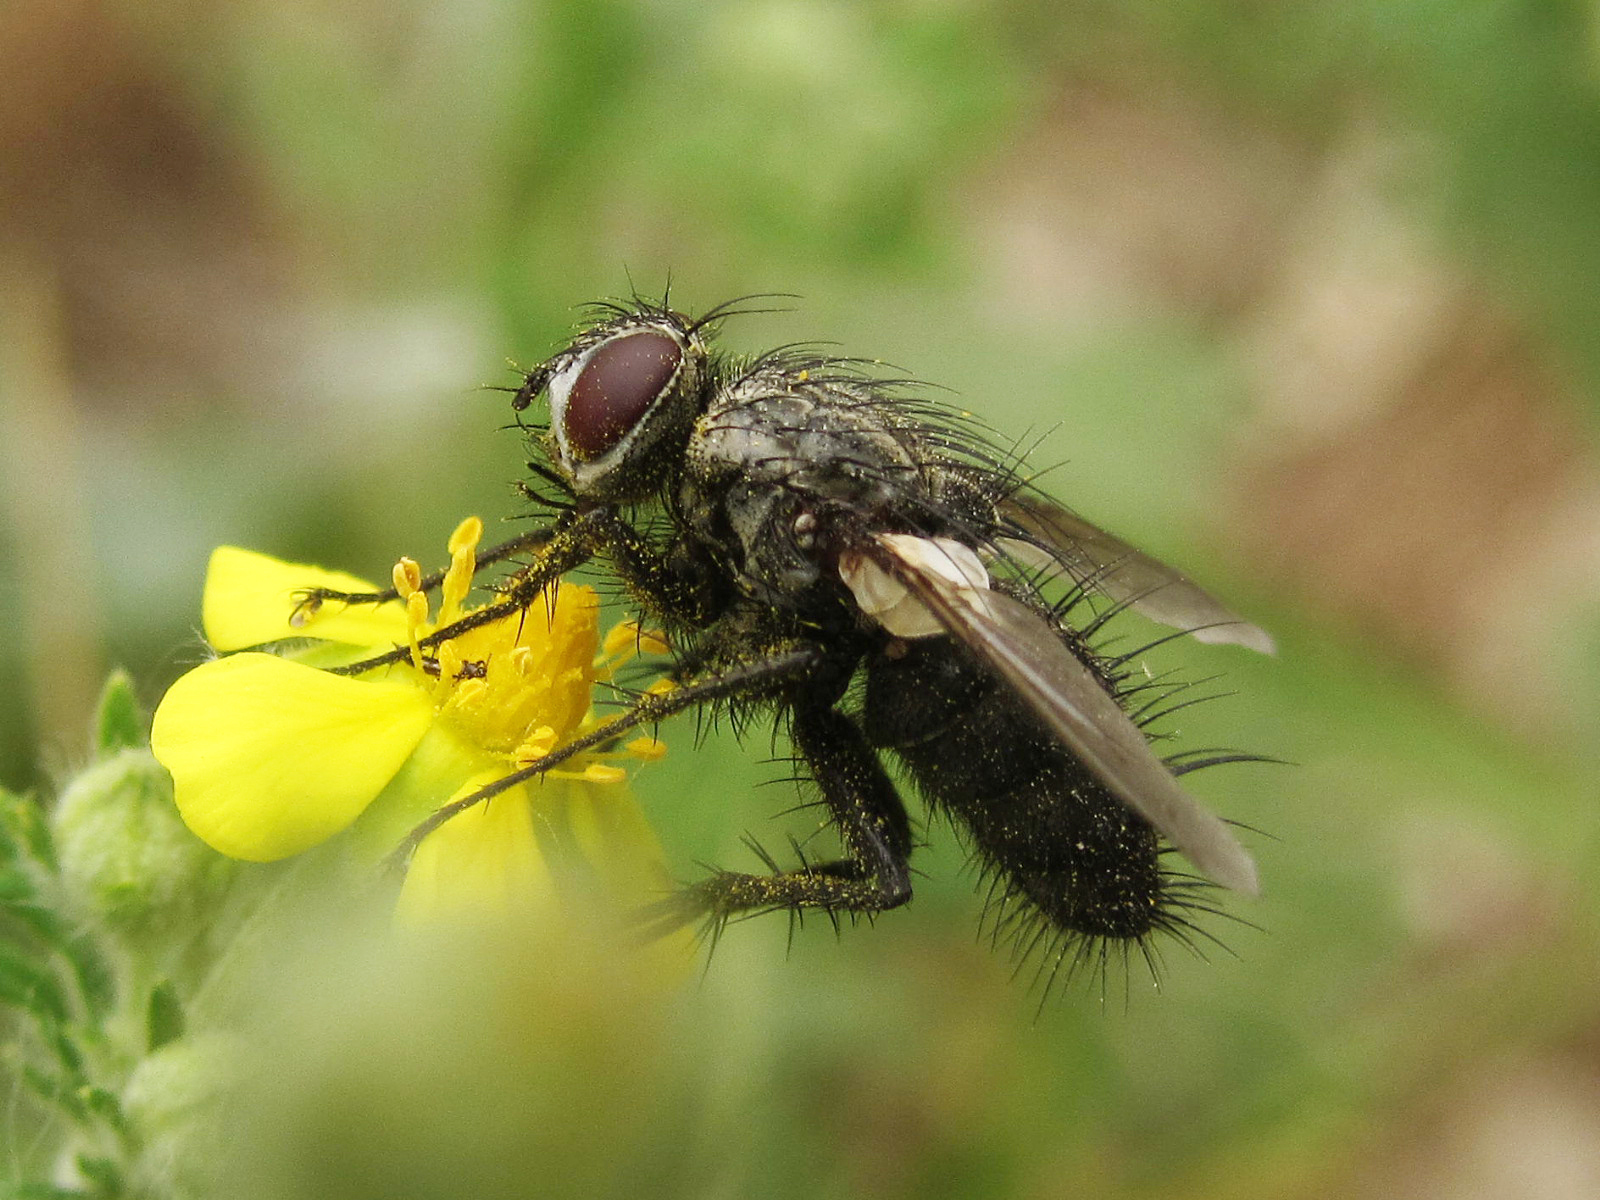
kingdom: Animalia
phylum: Arthropoda
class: Insecta
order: Diptera
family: Tachinidae
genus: Zeuxia
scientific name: Zeuxia cinerea
